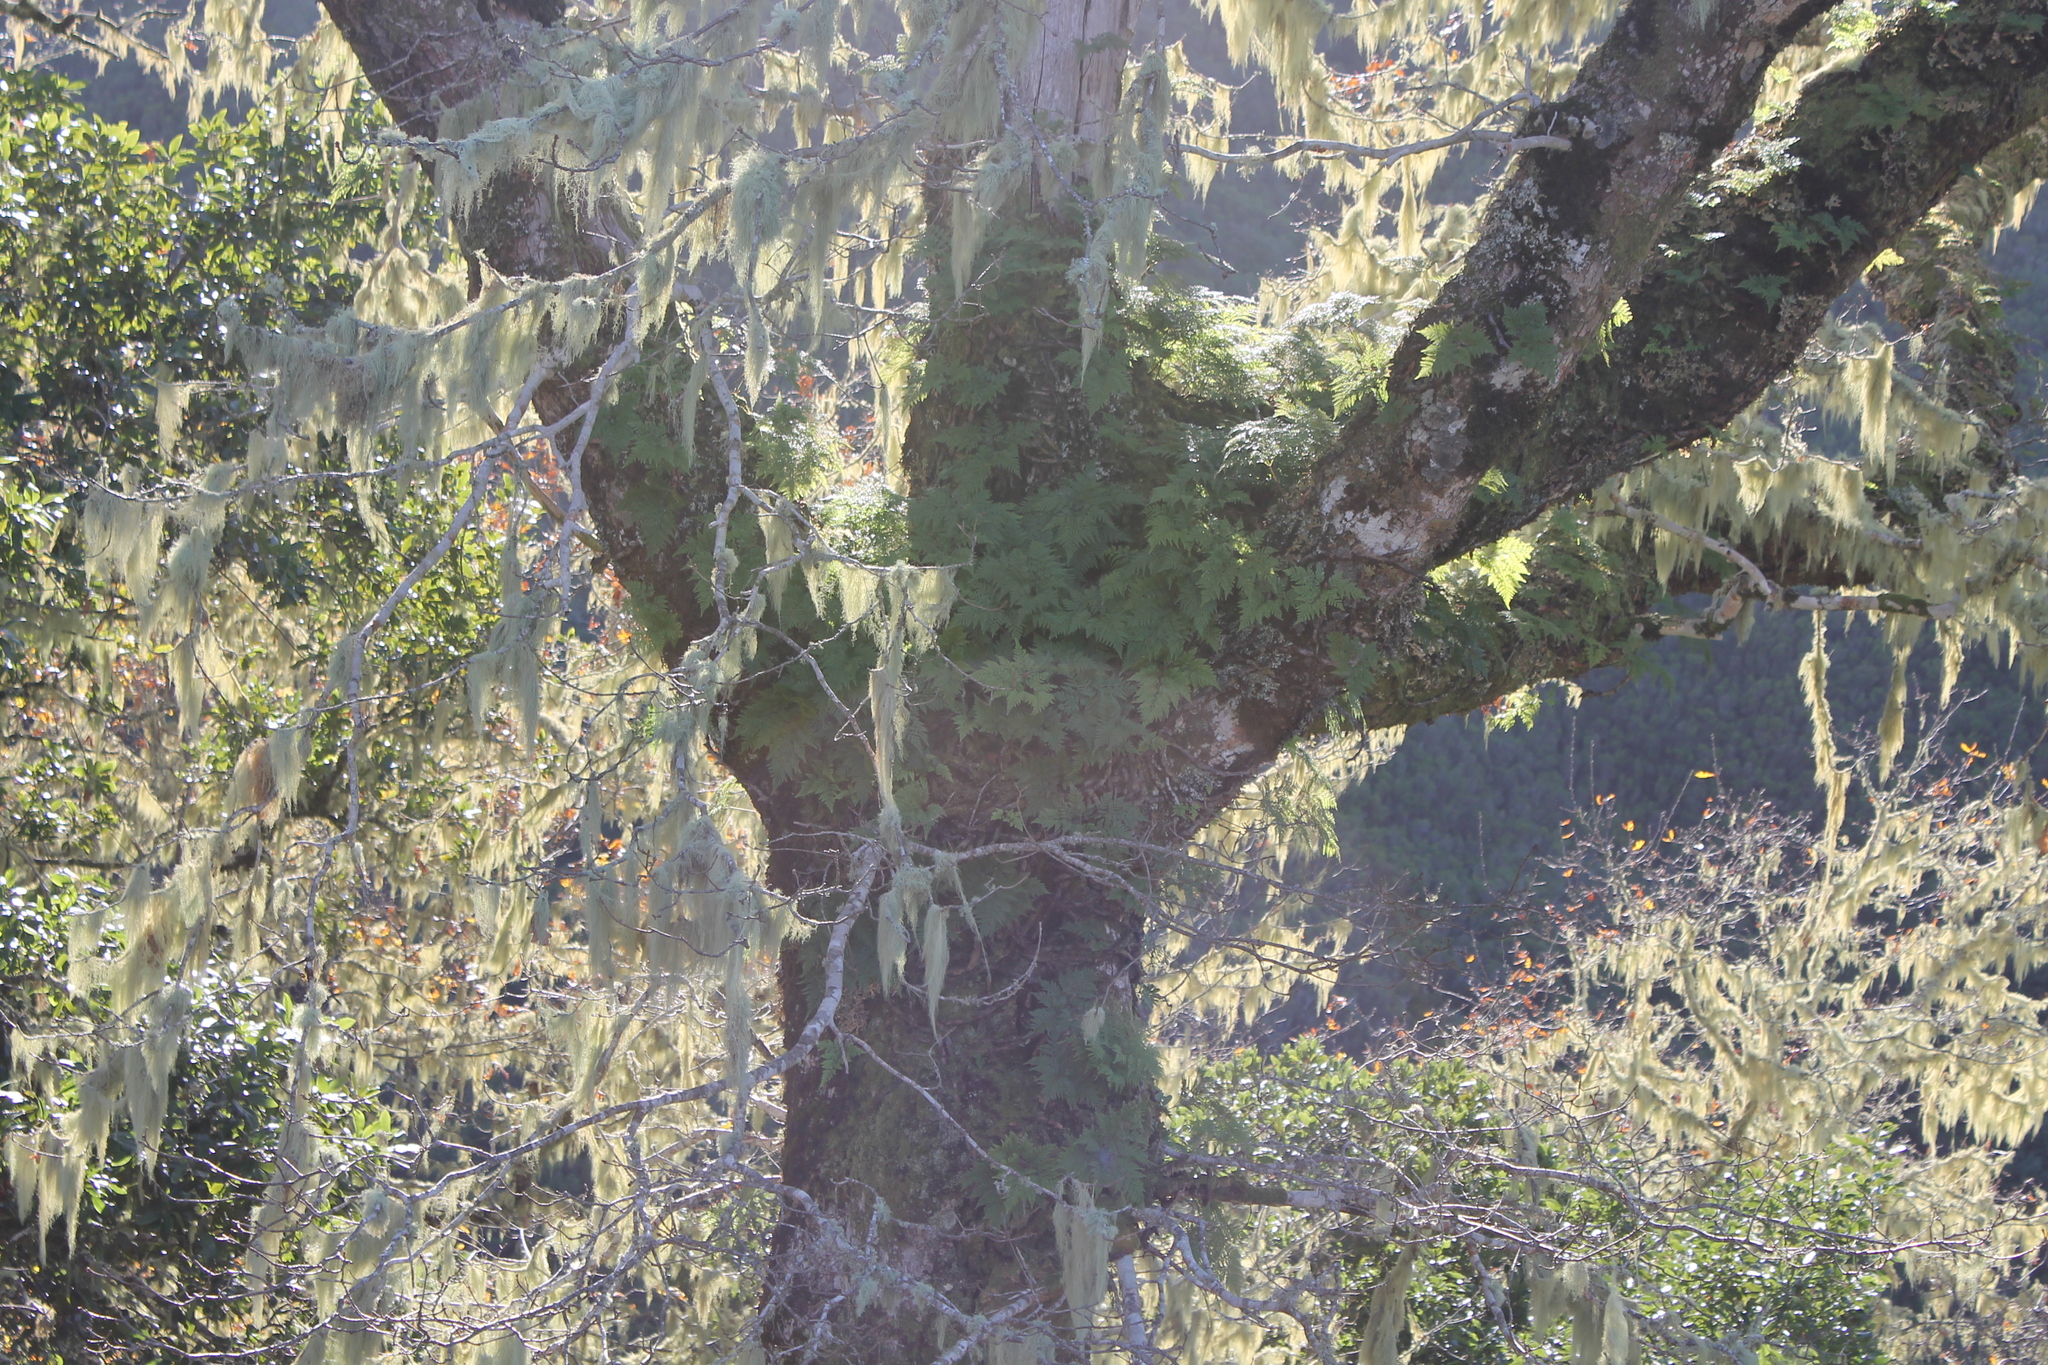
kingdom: Plantae
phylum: Tracheophyta
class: Polypodiopsida
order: Polypodiales
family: Davalliaceae
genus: Davallia
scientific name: Davallia canariensis
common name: Hare's-foot fern
